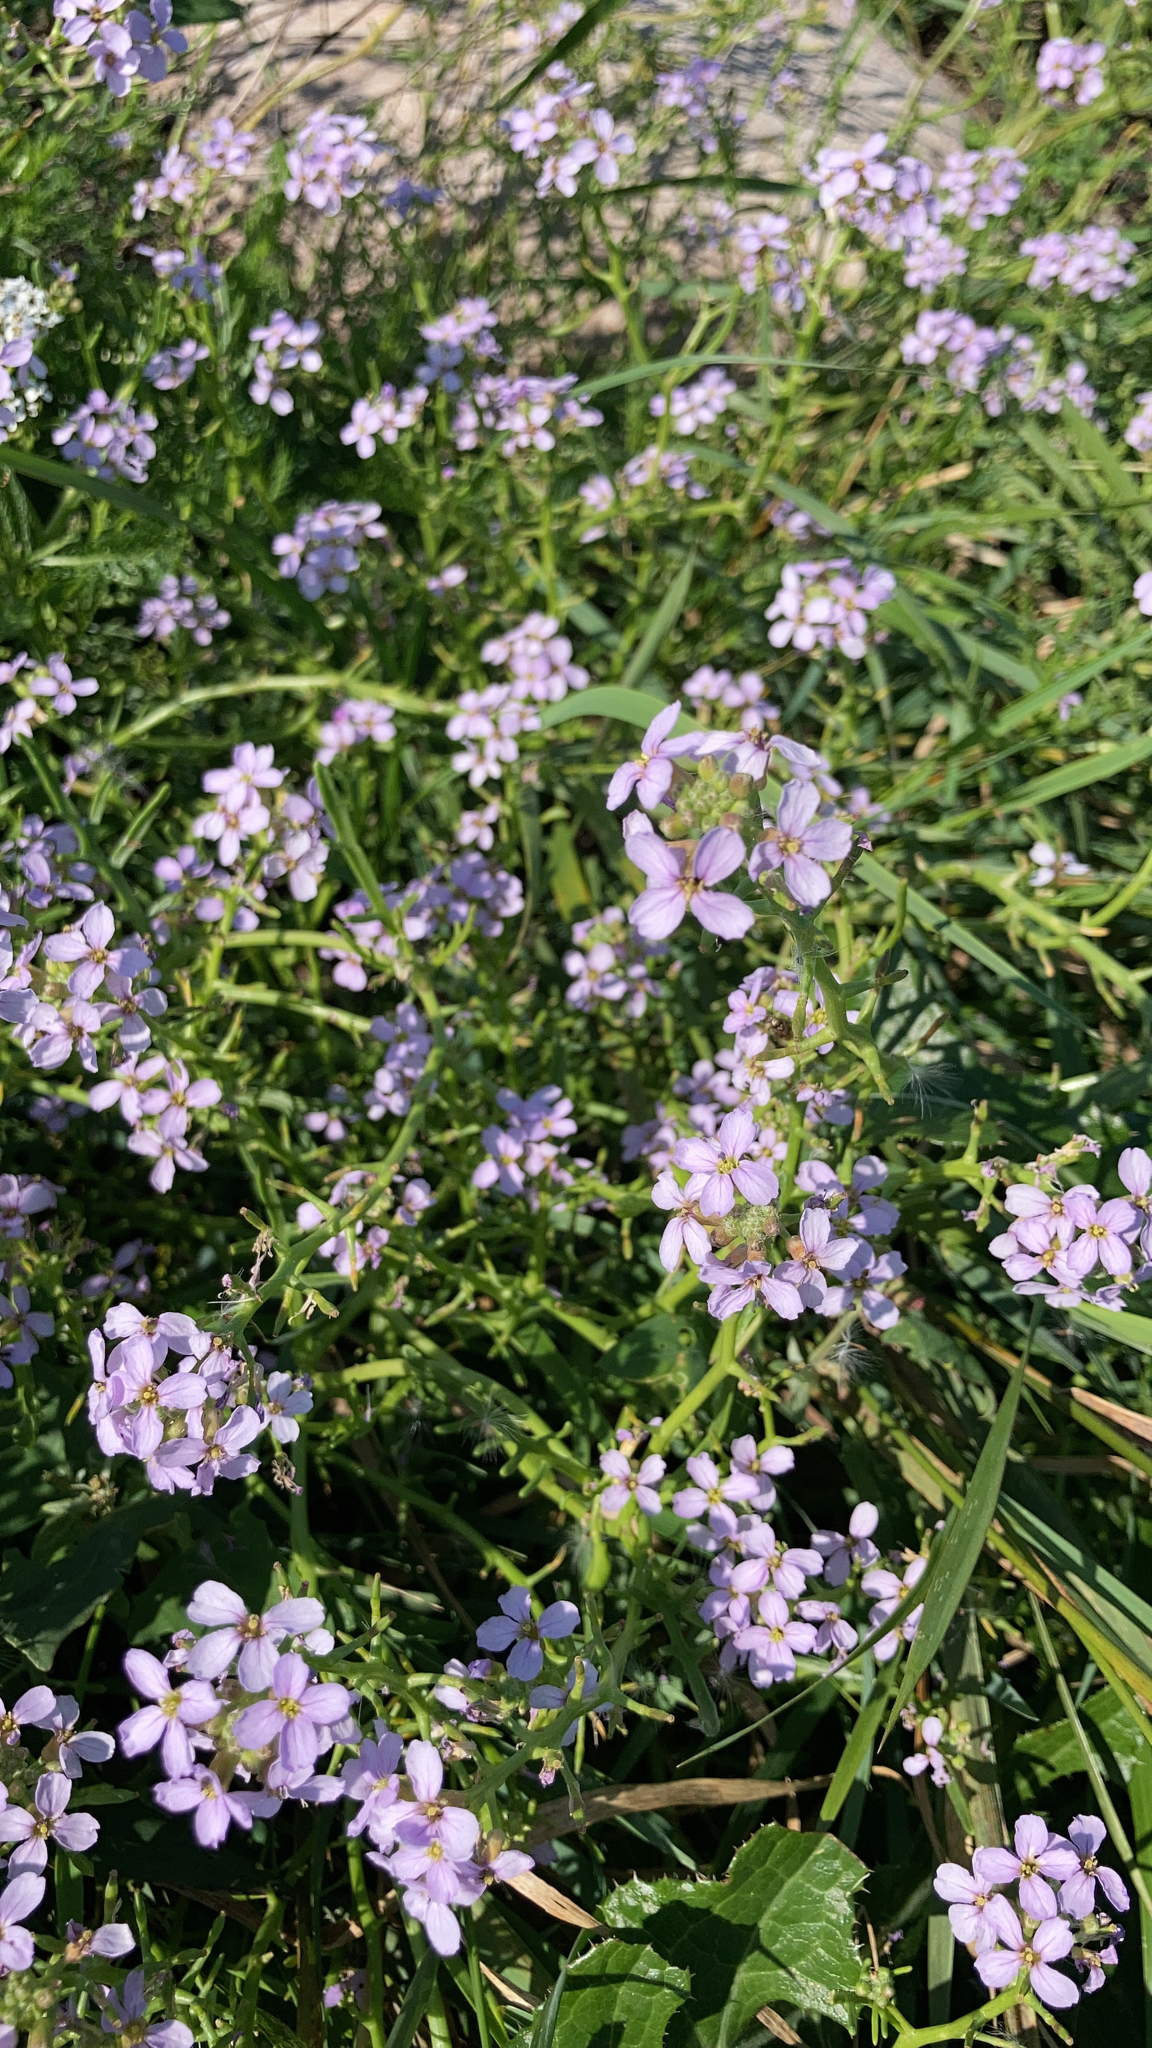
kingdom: Plantae
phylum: Tracheophyta
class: Magnoliopsida
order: Brassicales
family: Brassicaceae
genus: Cakile
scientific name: Cakile maritima
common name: Sea rocket
